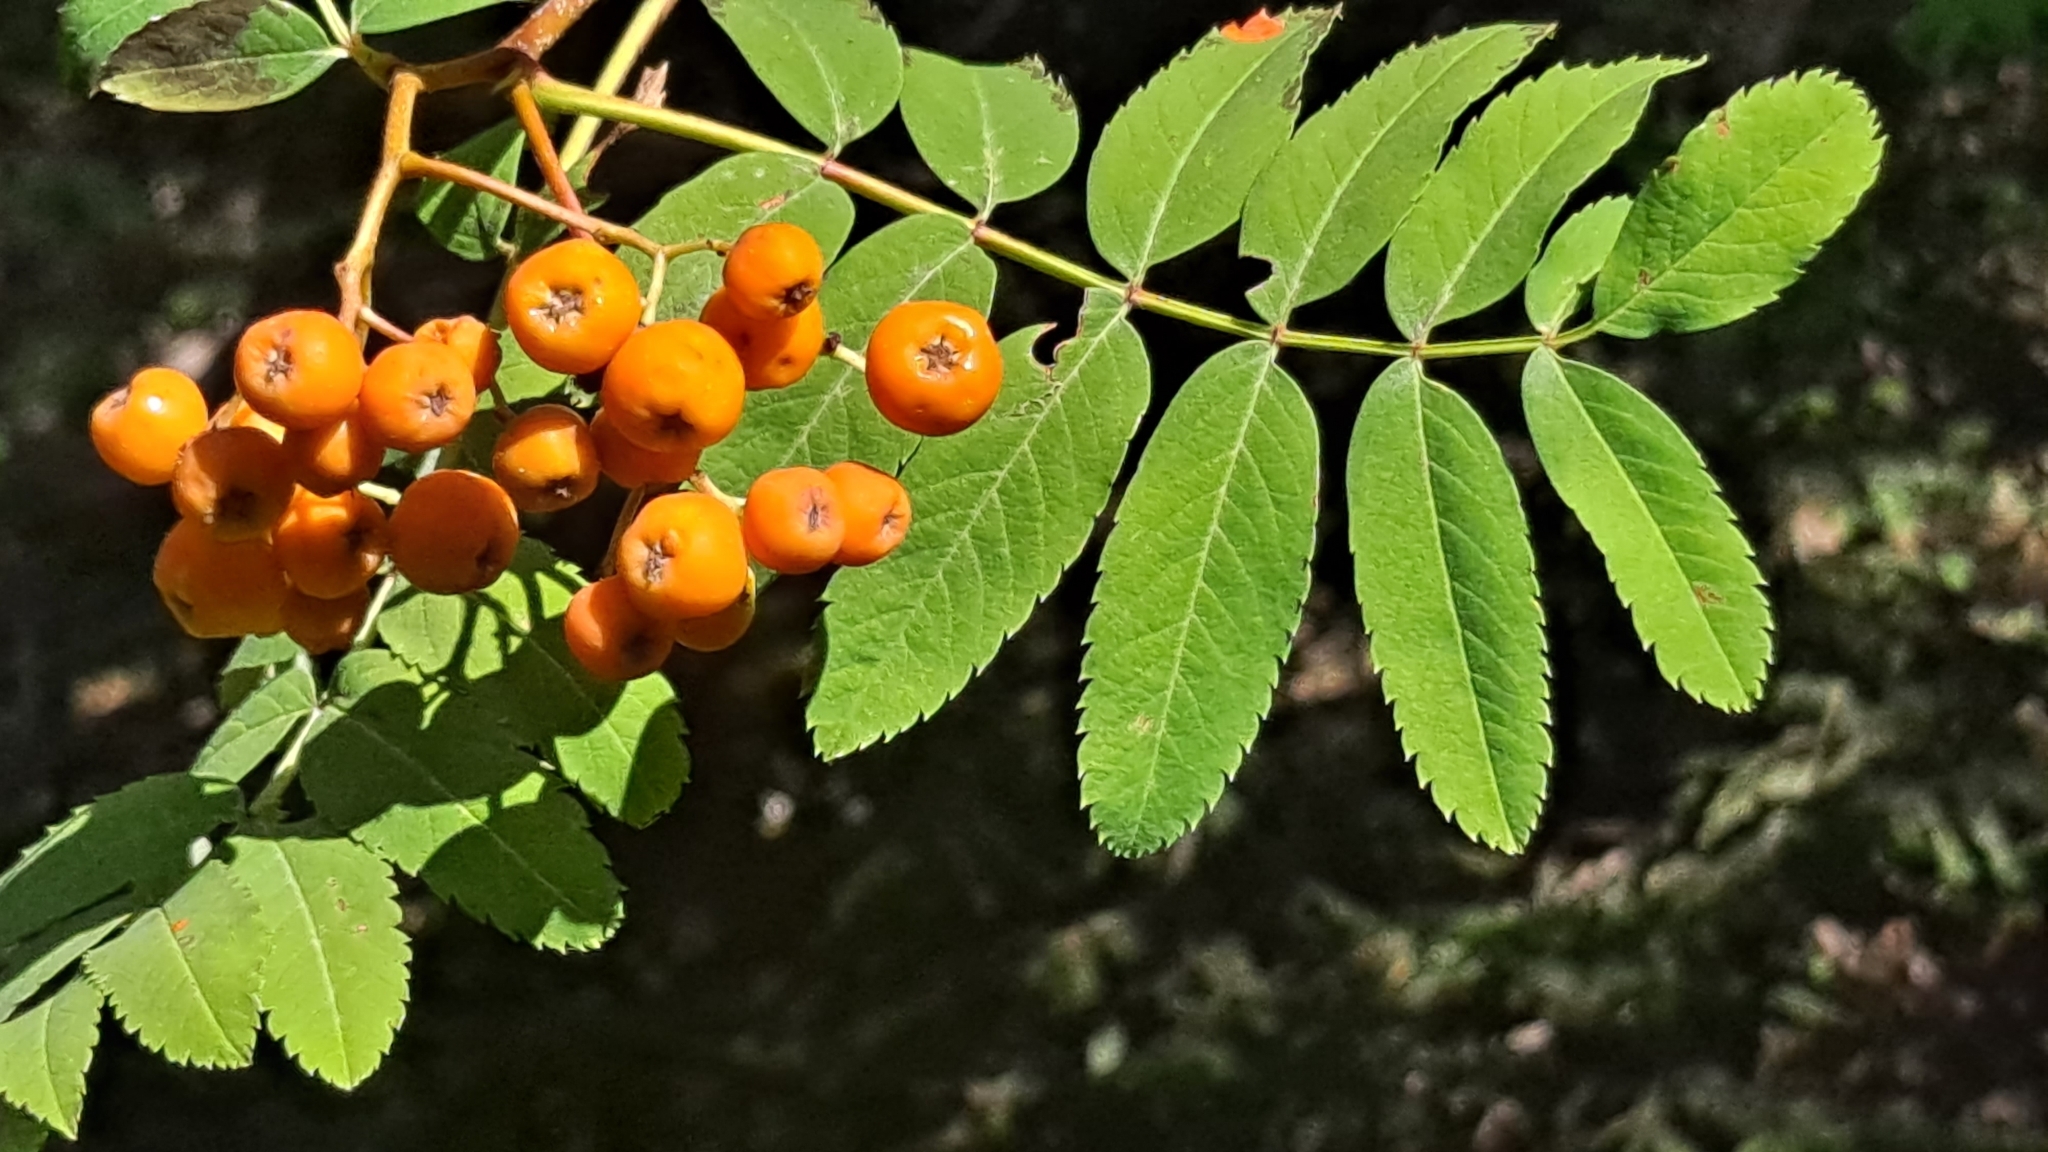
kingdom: Plantae
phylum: Tracheophyta
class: Magnoliopsida
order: Rosales
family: Rosaceae
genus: Sorbus
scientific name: Sorbus aucuparia
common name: Rowan
